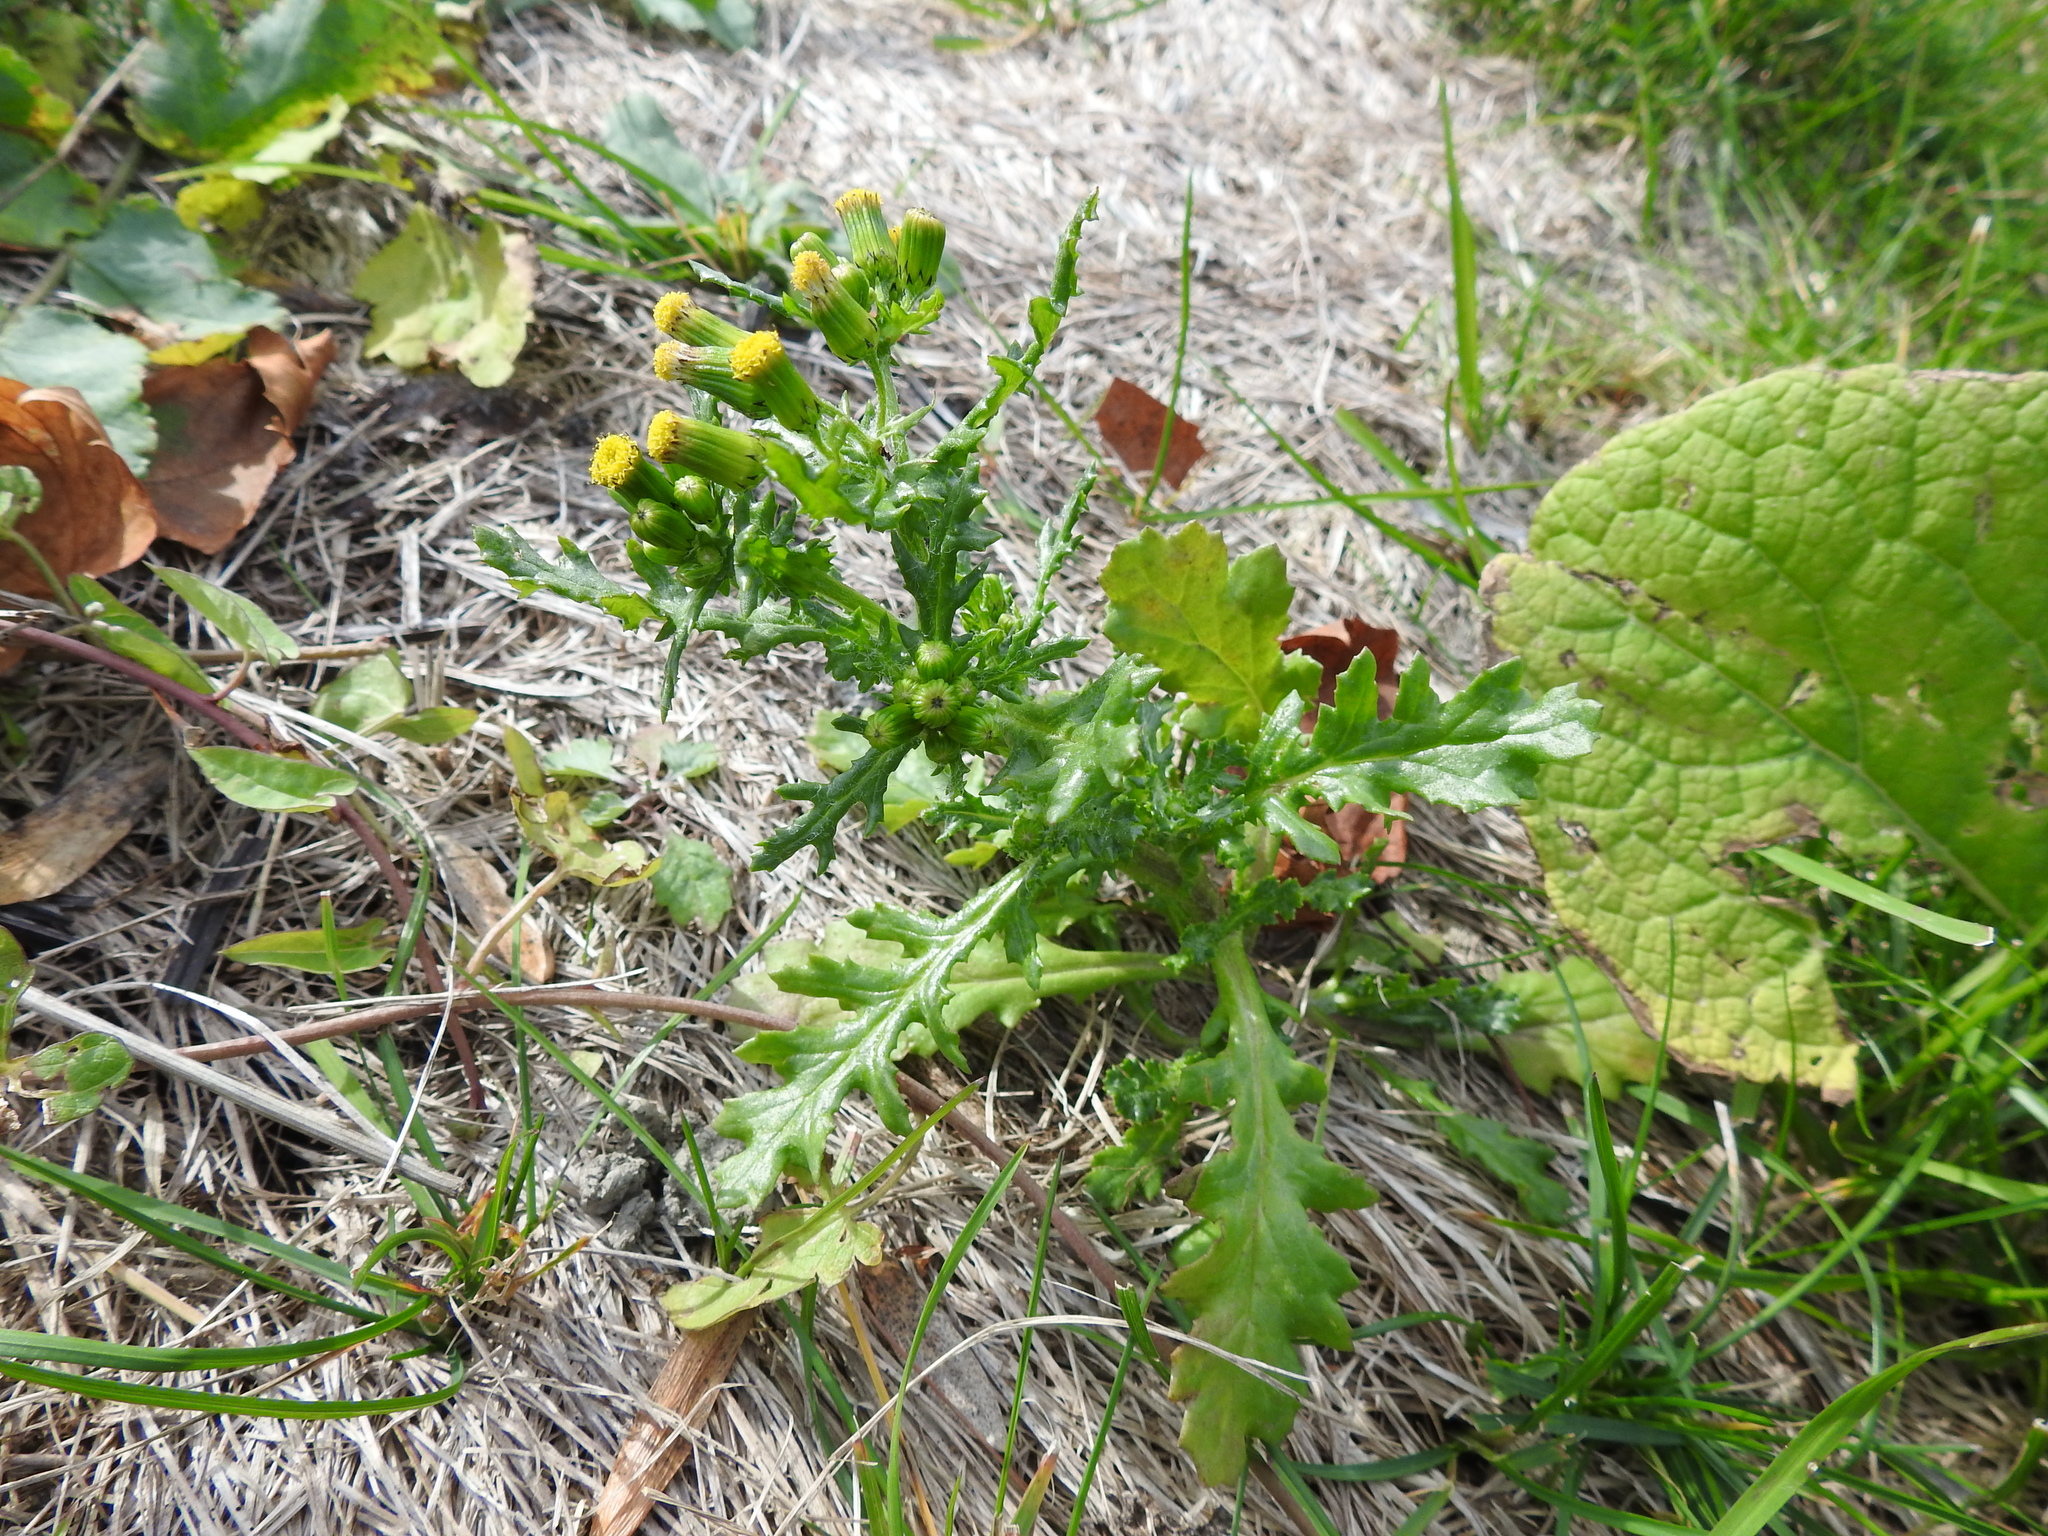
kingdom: Plantae
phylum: Tracheophyta
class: Magnoliopsida
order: Asterales
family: Asteraceae
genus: Senecio
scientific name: Senecio vulgaris
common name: Old-man-in-the-spring
